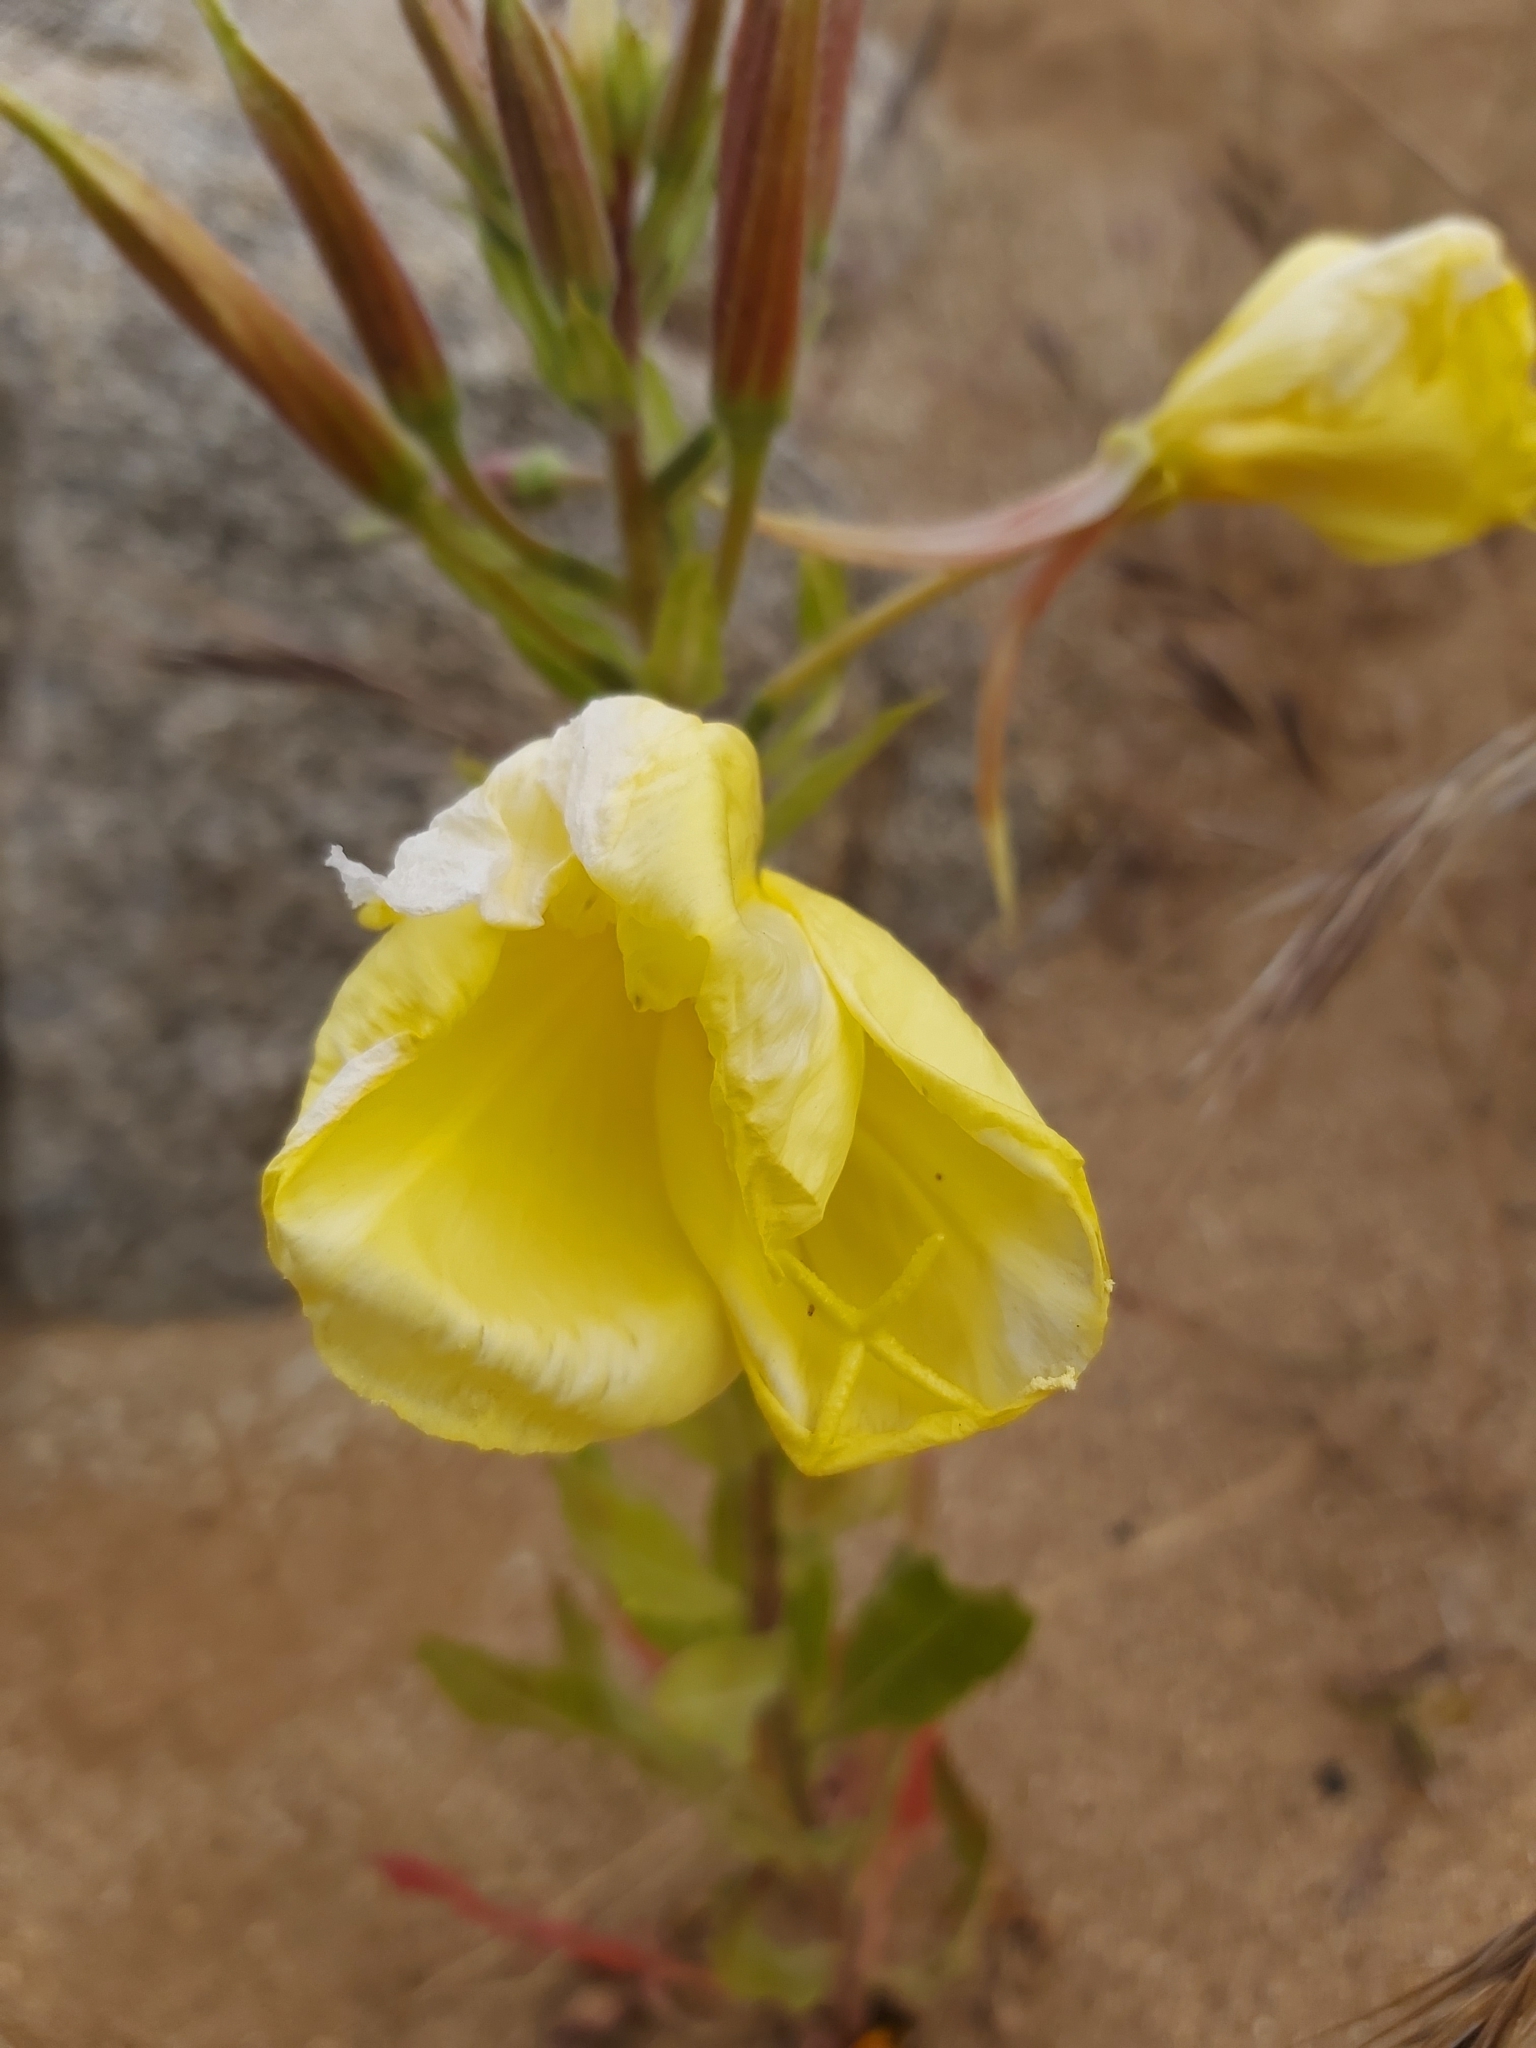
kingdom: Plantae
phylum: Tracheophyta
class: Magnoliopsida
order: Myrtales
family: Onagraceae
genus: Oenothera
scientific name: Oenothera stricta
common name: Fragrant evening-primrose
